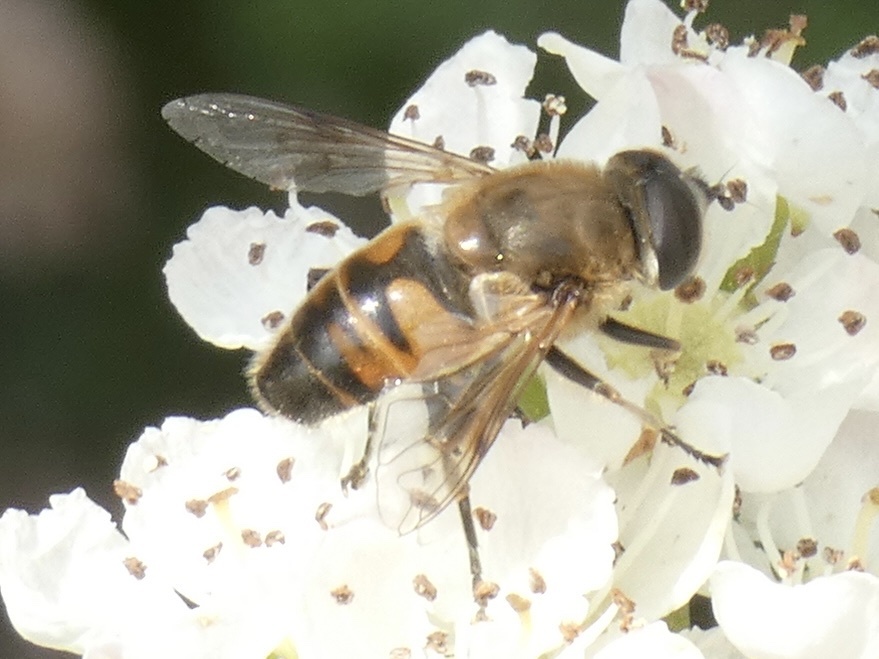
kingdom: Animalia
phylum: Arthropoda
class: Insecta
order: Diptera
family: Syrphidae
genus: Eristalis
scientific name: Eristalis tenax
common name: Drone fly
